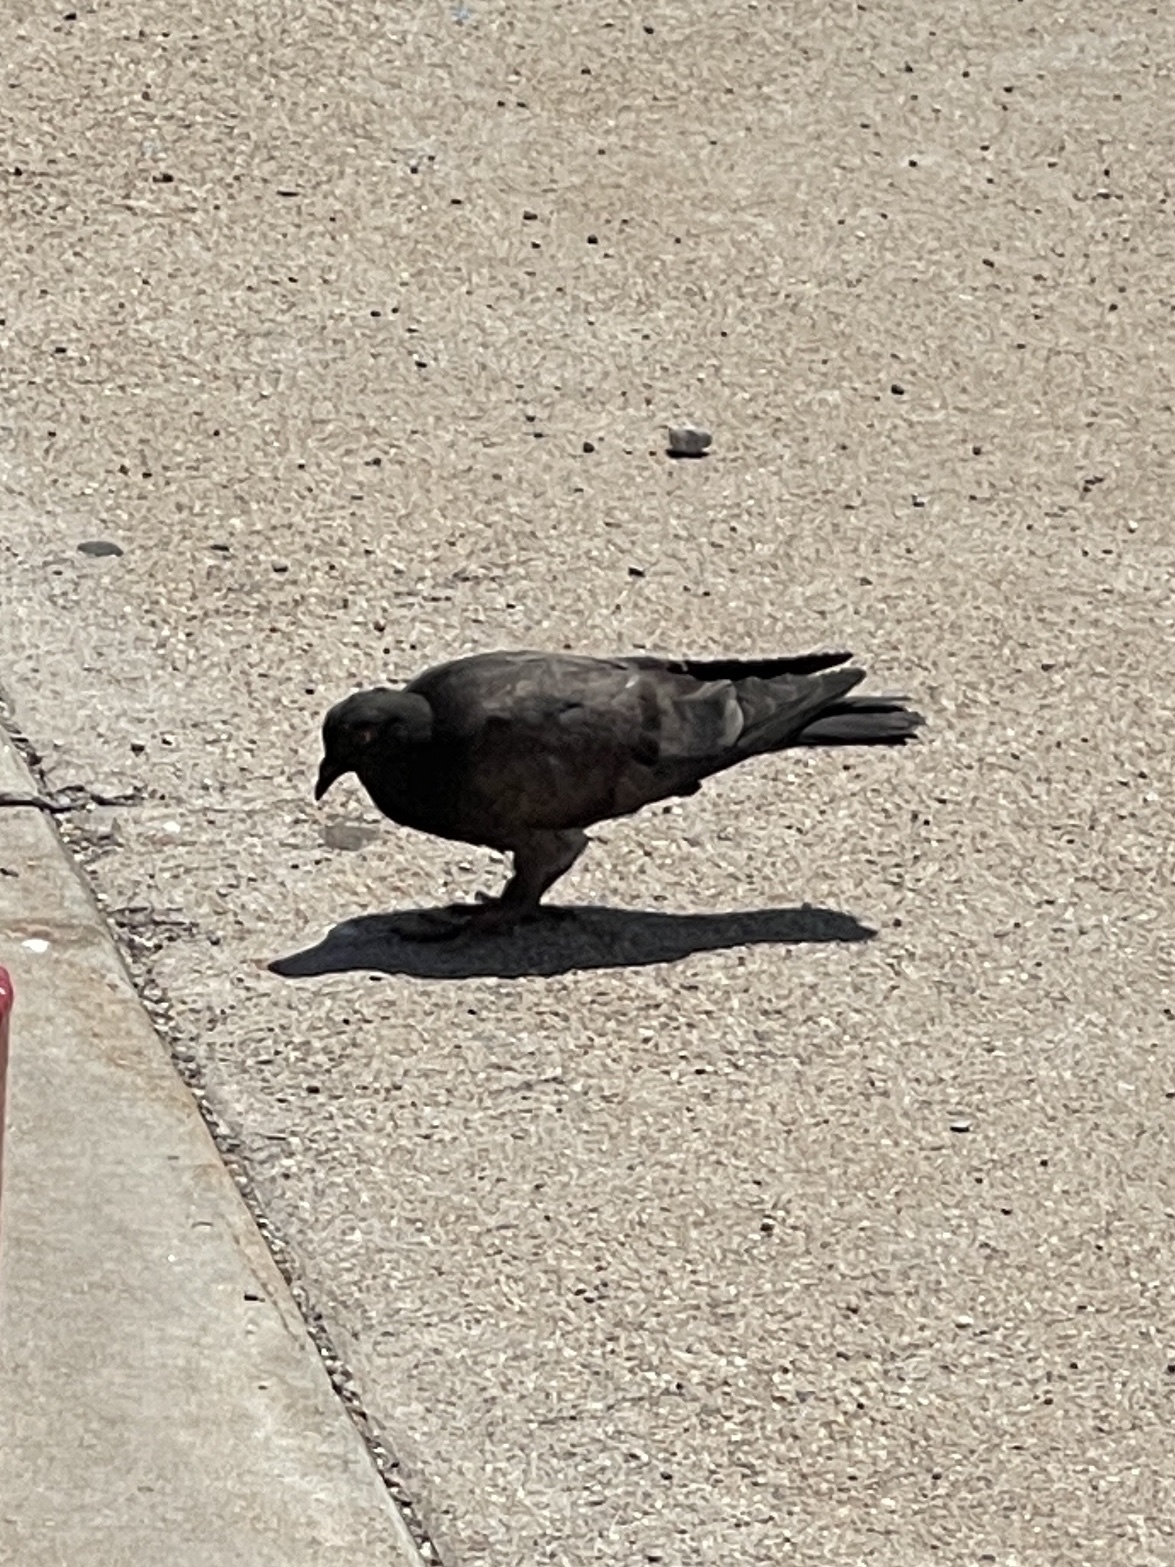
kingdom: Animalia
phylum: Chordata
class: Aves
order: Columbiformes
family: Columbidae
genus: Columba
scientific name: Columba livia
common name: Rock pigeon
